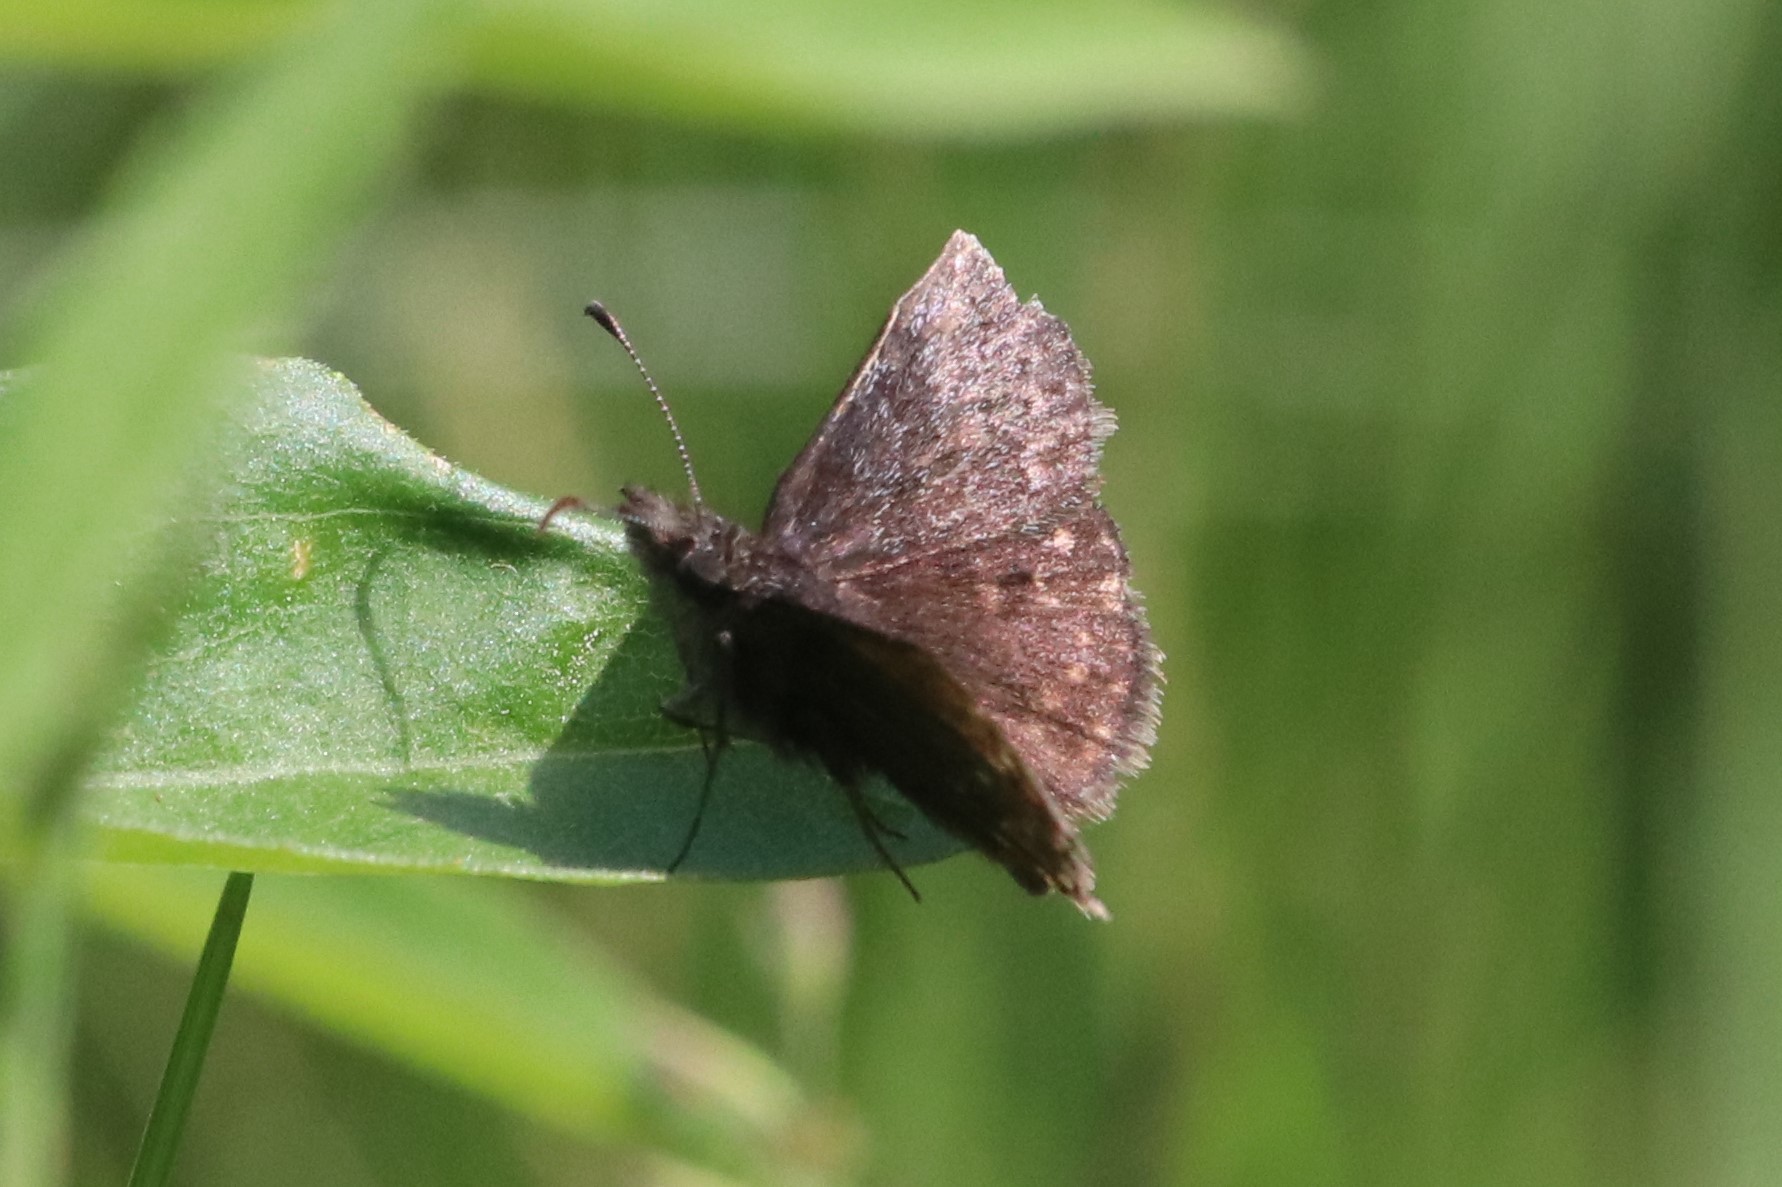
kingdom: Animalia
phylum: Arthropoda
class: Insecta
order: Lepidoptera
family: Hesperiidae
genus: Erynnis
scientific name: Erynnis icelus
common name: Dreamy duskywing
